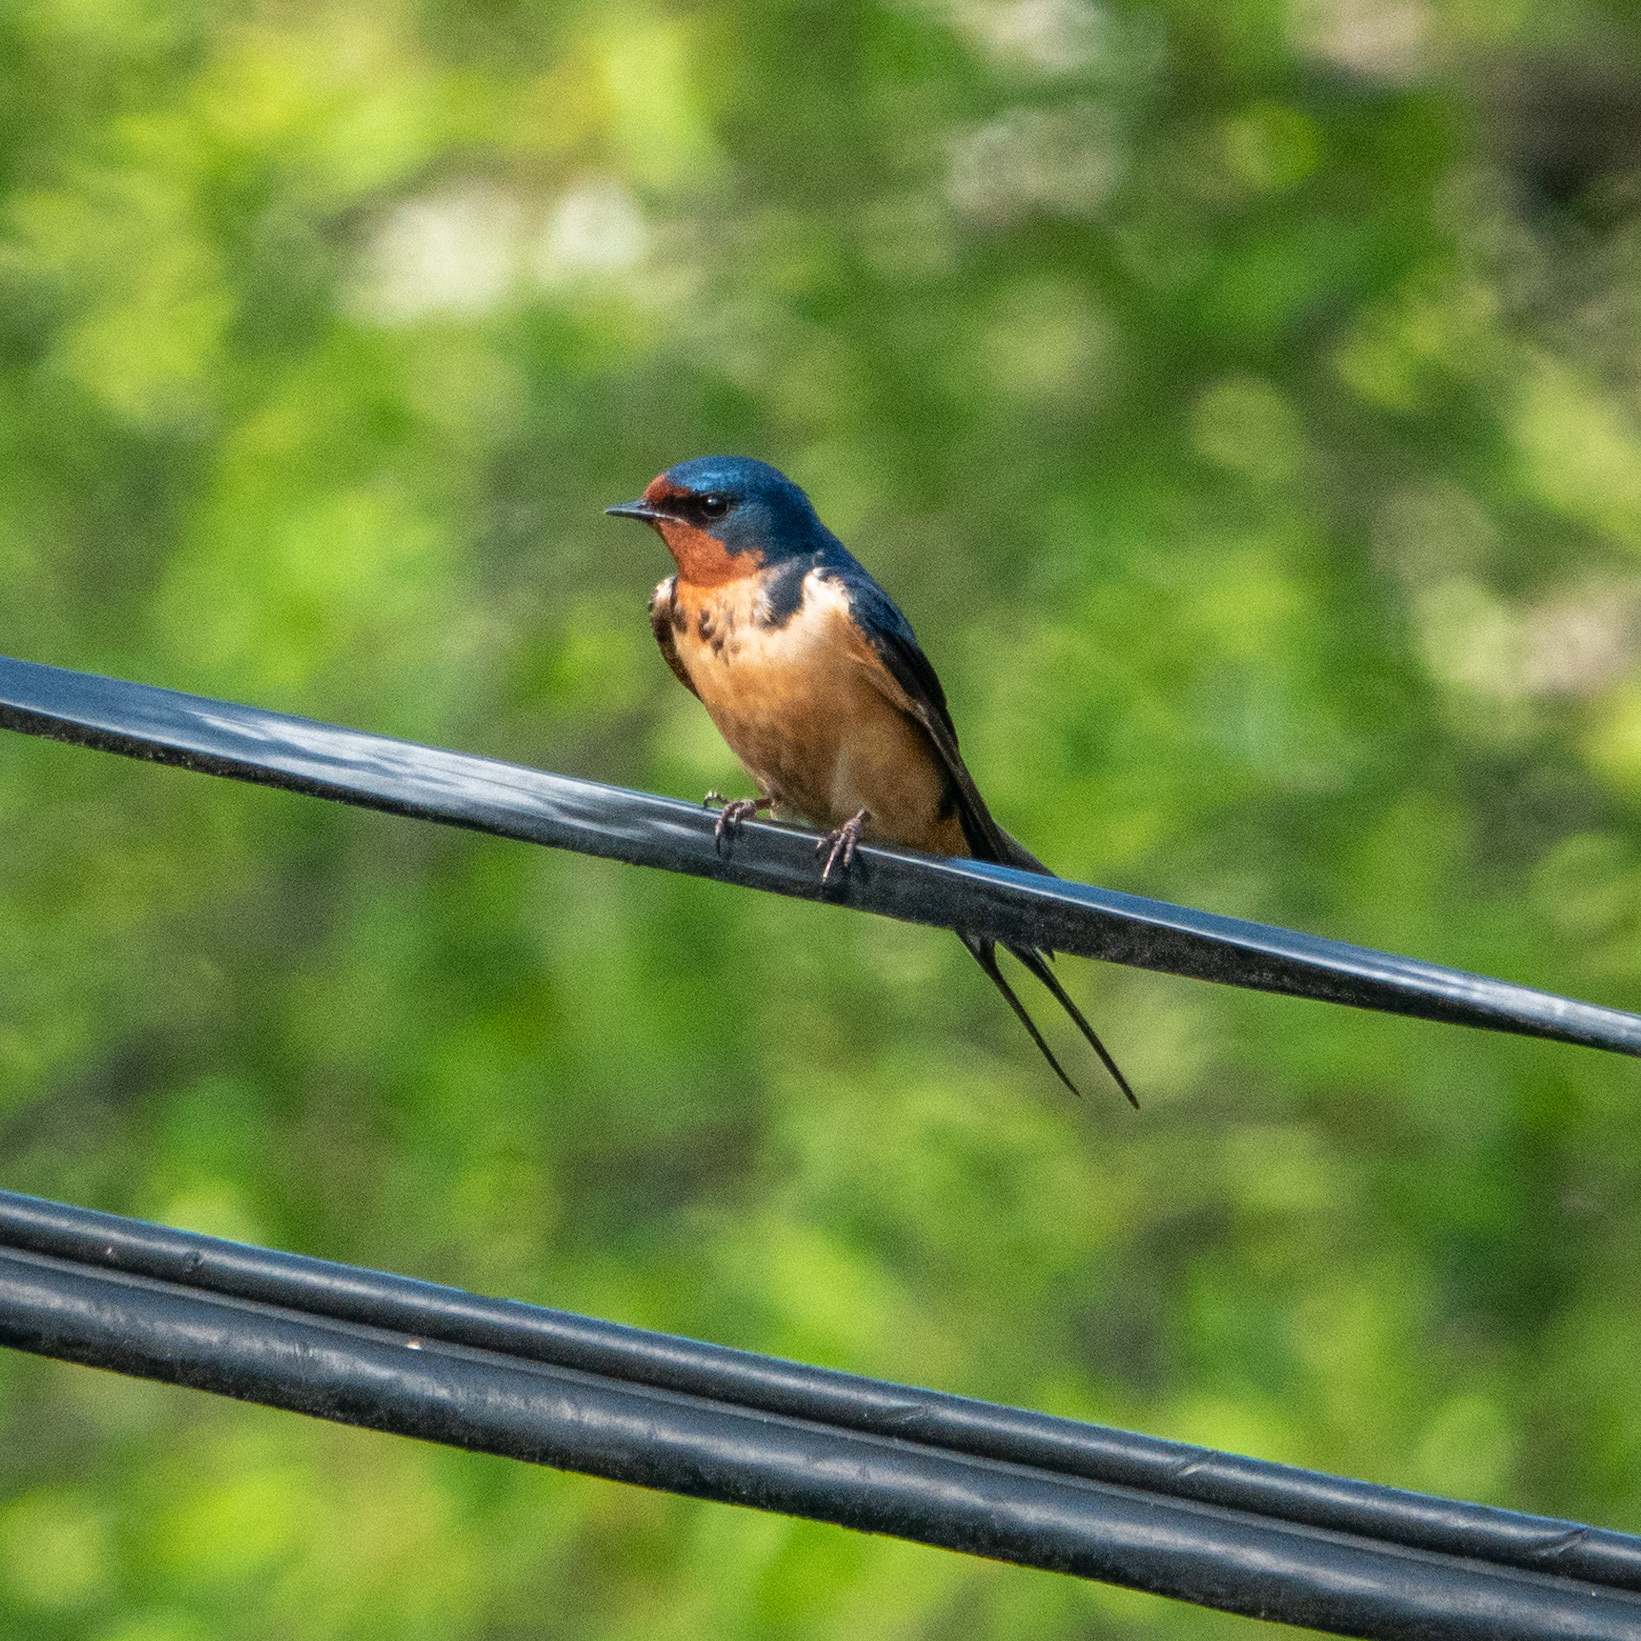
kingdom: Animalia
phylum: Chordata
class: Aves
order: Passeriformes
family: Hirundinidae
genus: Hirundo
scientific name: Hirundo rustica
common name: Barn swallow
